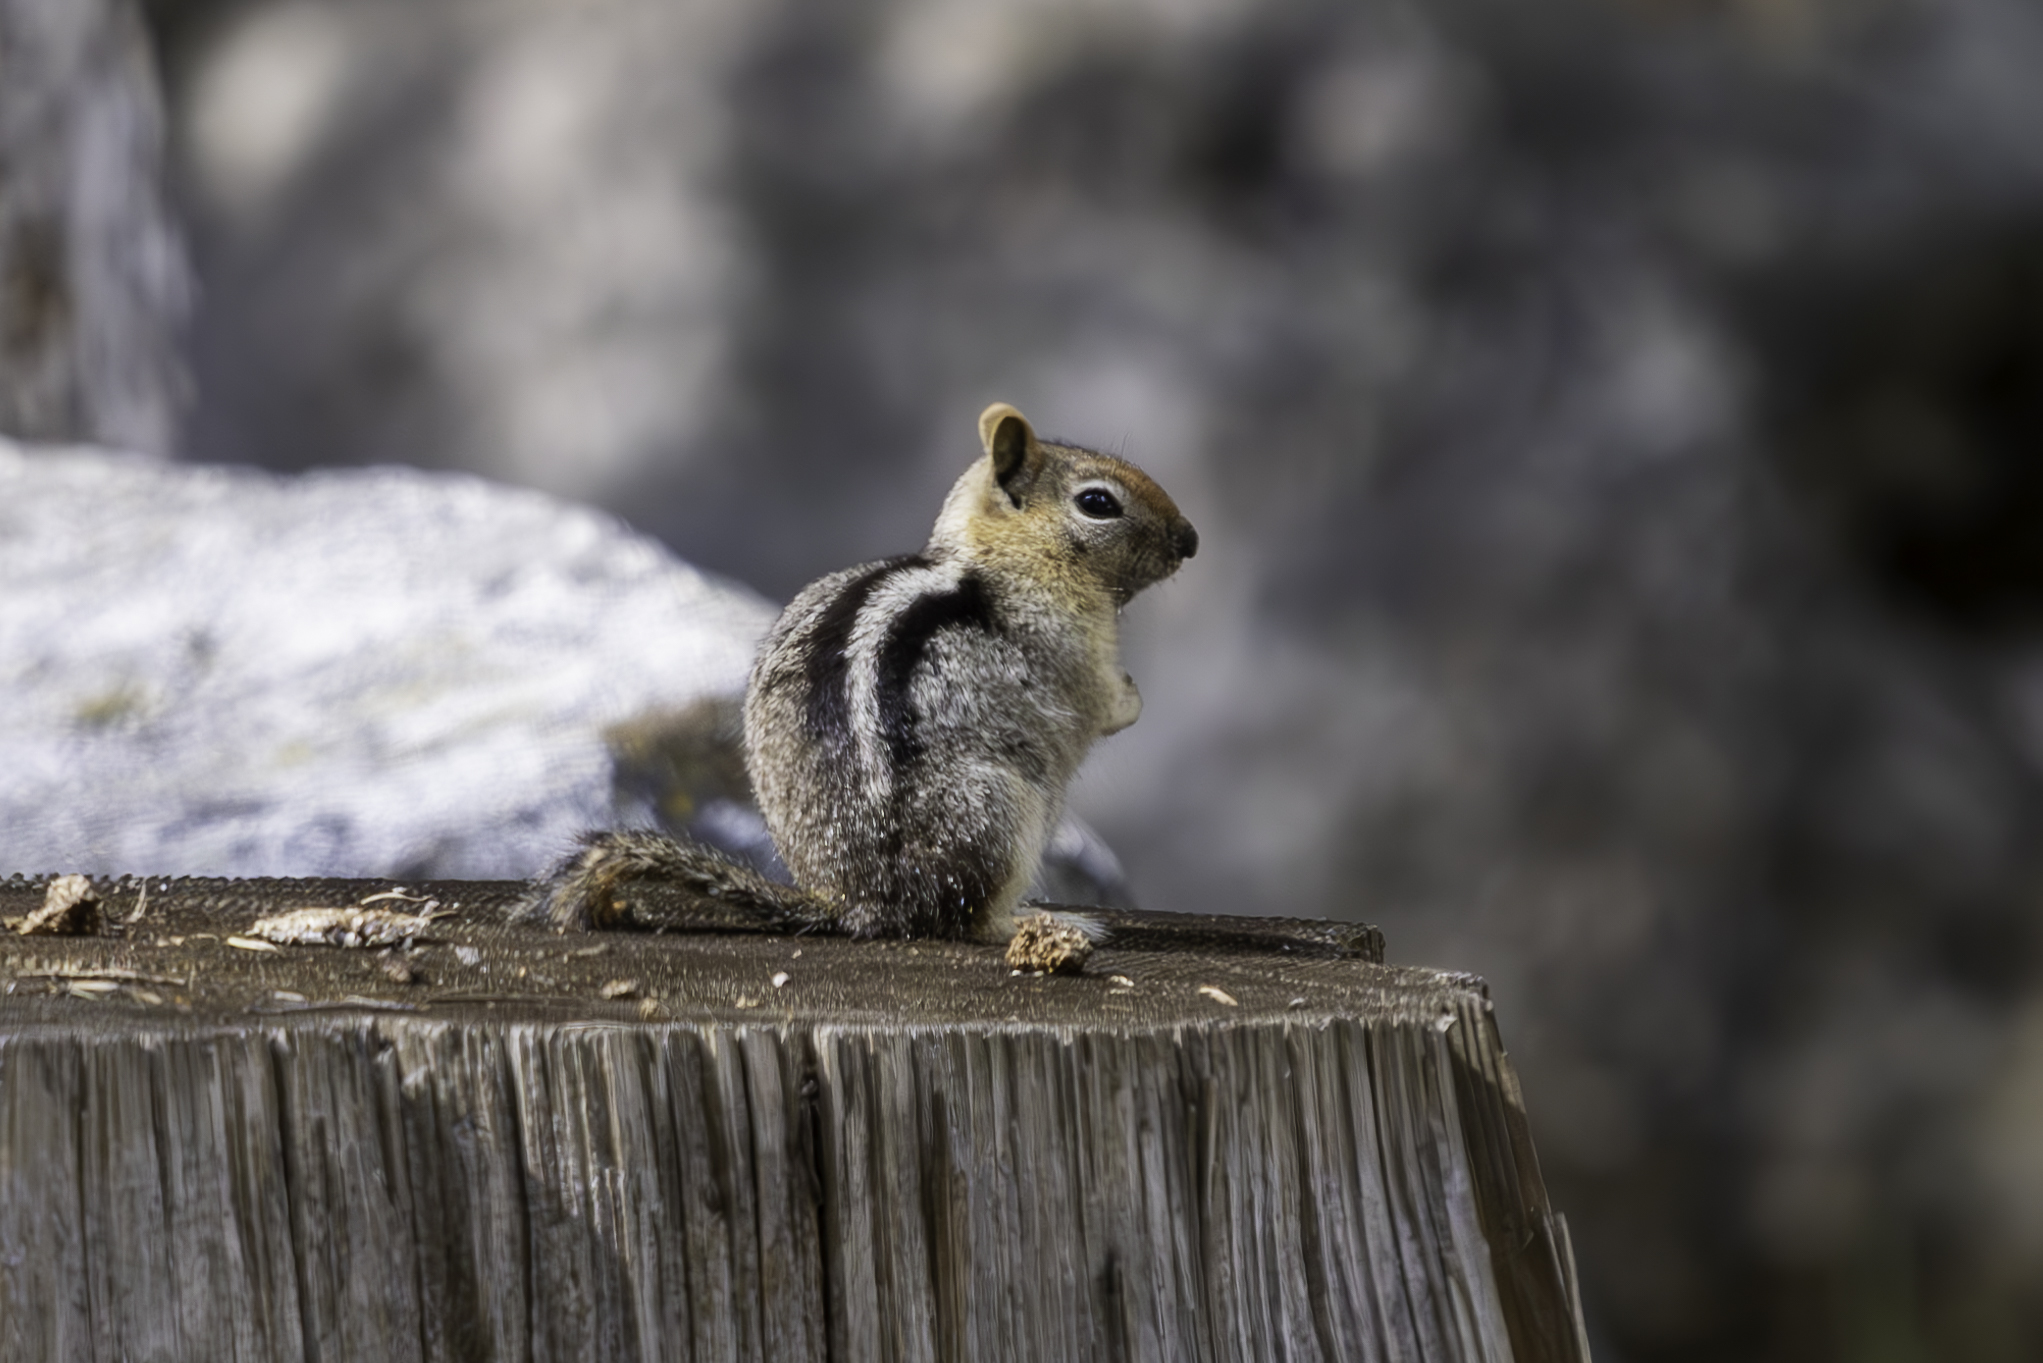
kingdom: Animalia
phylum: Chordata
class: Mammalia
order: Rodentia
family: Sciuridae
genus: Callospermophilus
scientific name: Callospermophilus lateralis
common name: Golden-mantled ground squirrel
